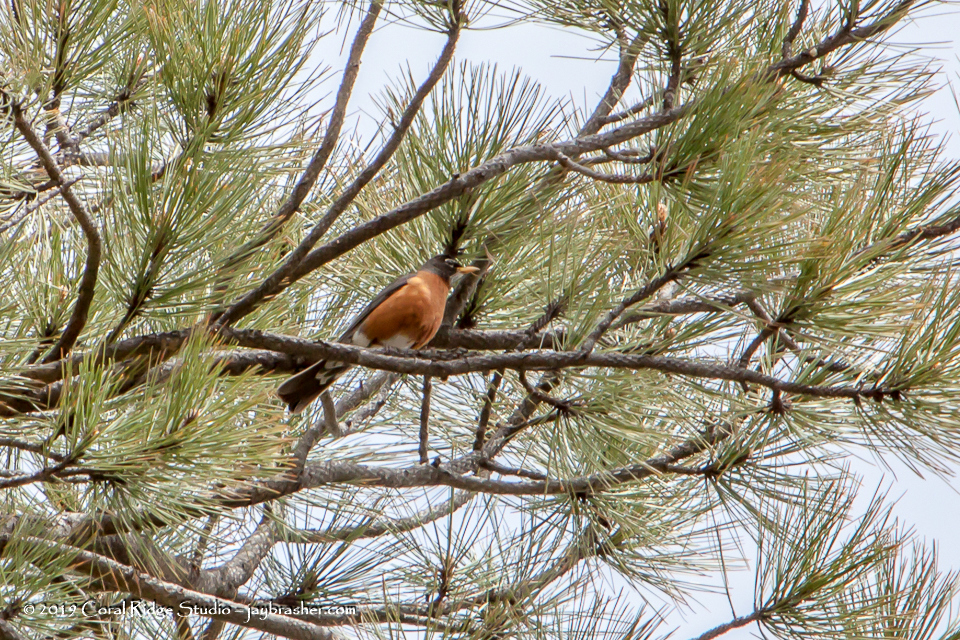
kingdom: Animalia
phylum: Chordata
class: Aves
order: Passeriformes
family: Turdidae
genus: Turdus
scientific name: Turdus migratorius
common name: American robin
